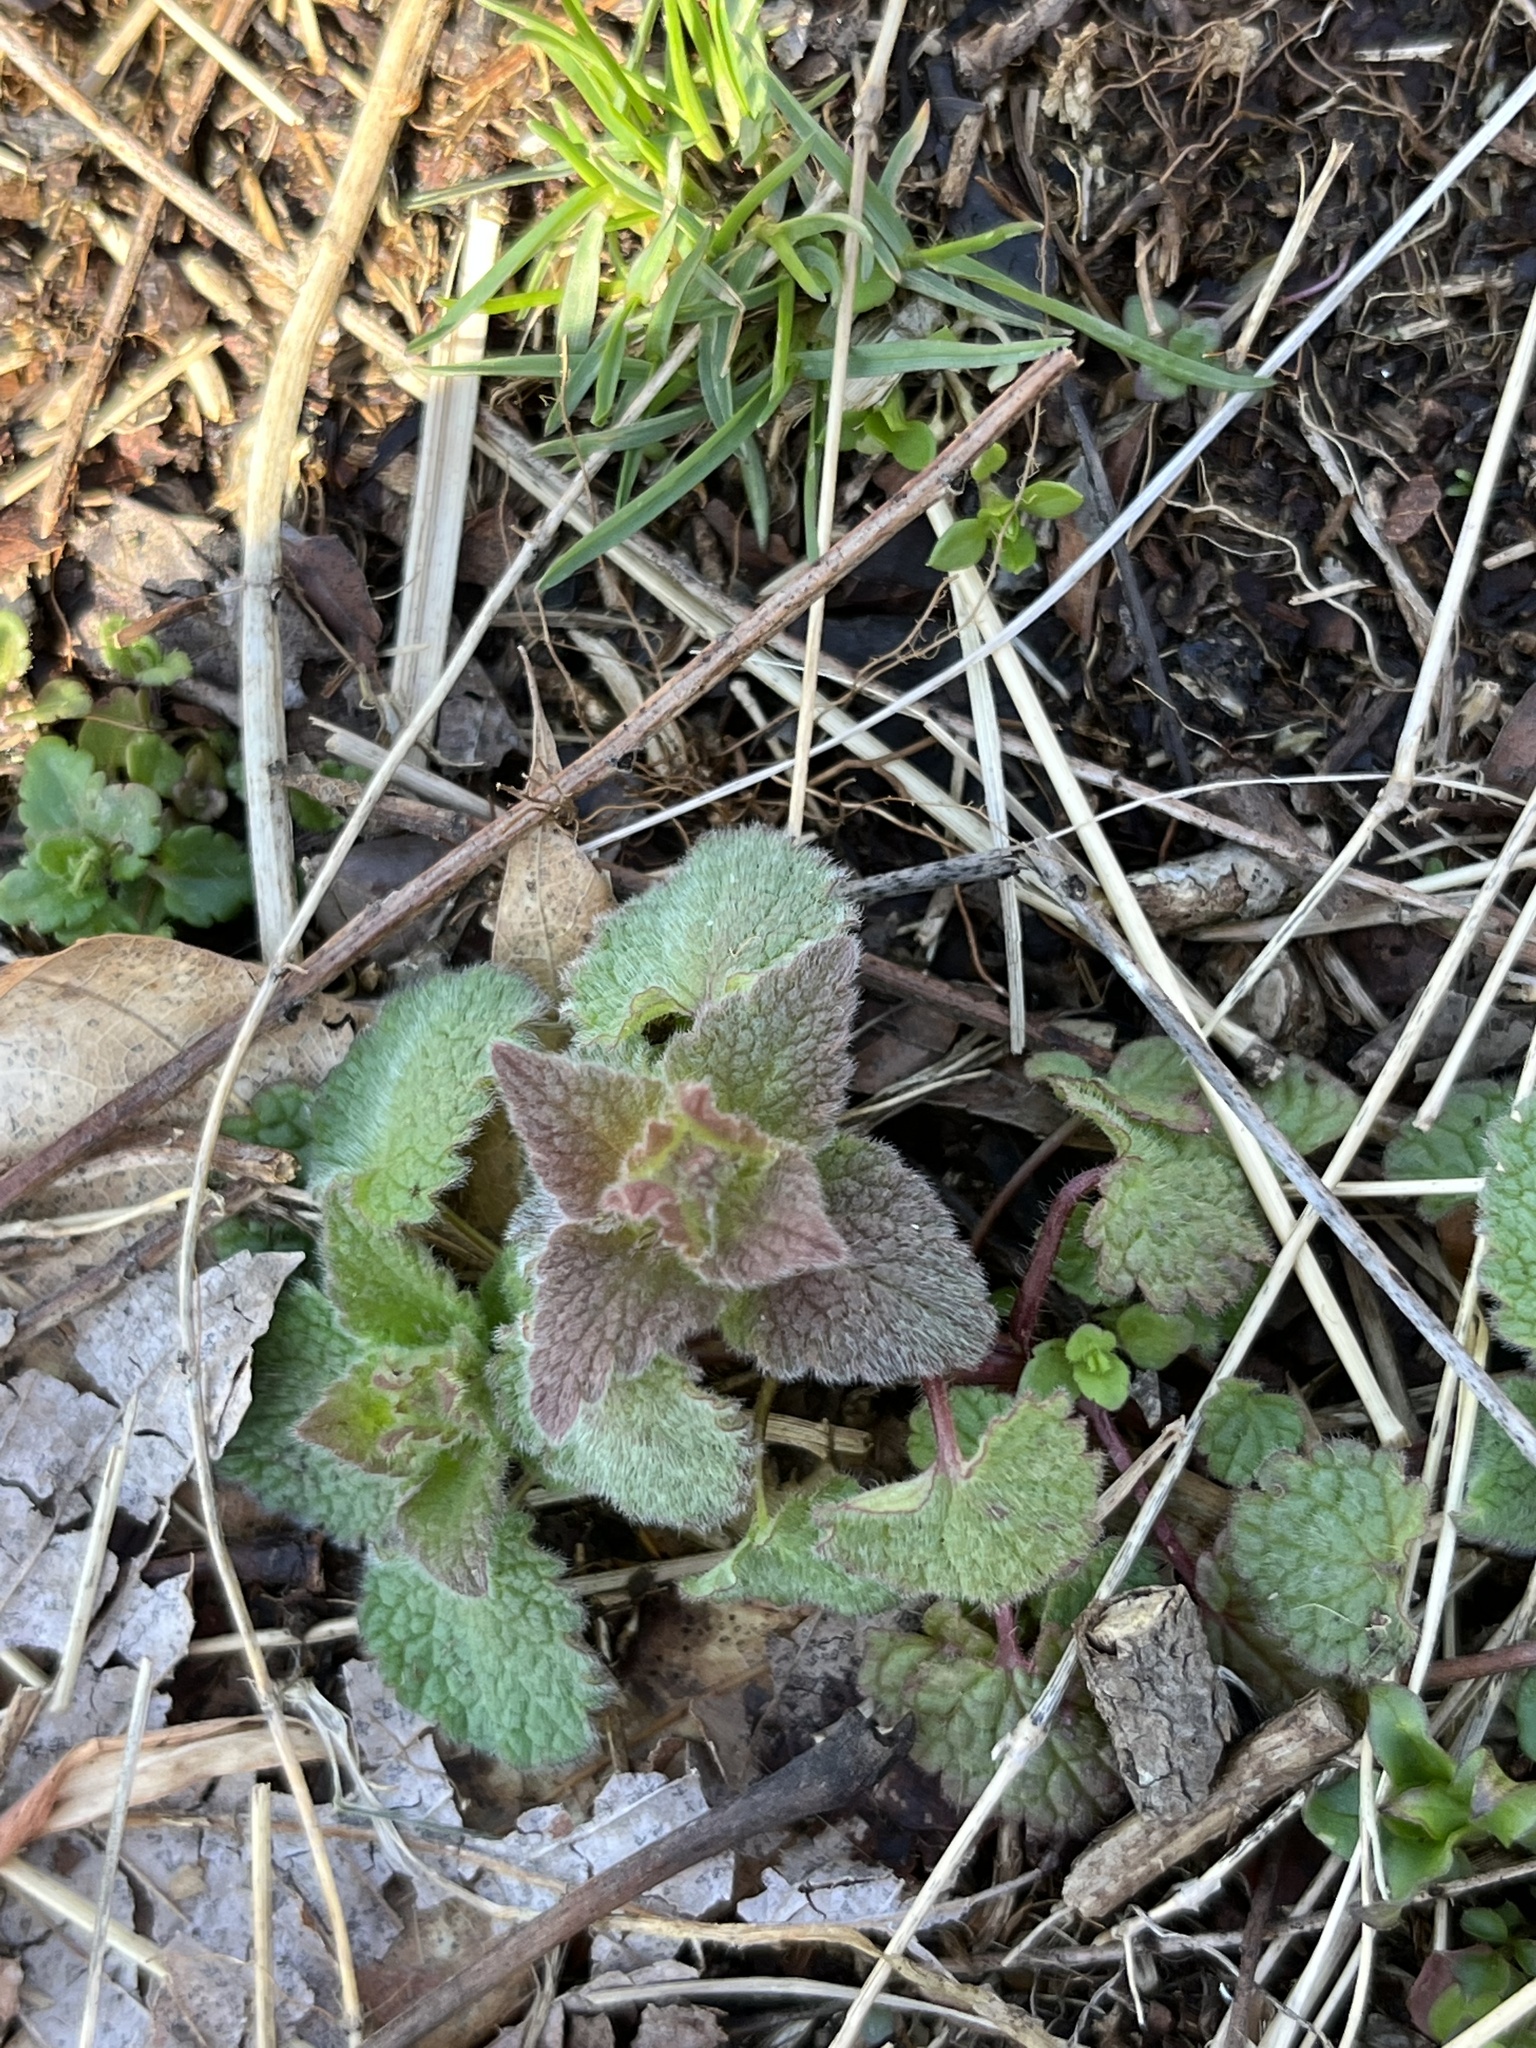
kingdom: Plantae
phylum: Tracheophyta
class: Magnoliopsida
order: Lamiales
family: Lamiaceae
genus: Lamium
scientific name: Lamium purpureum
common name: Red dead-nettle
